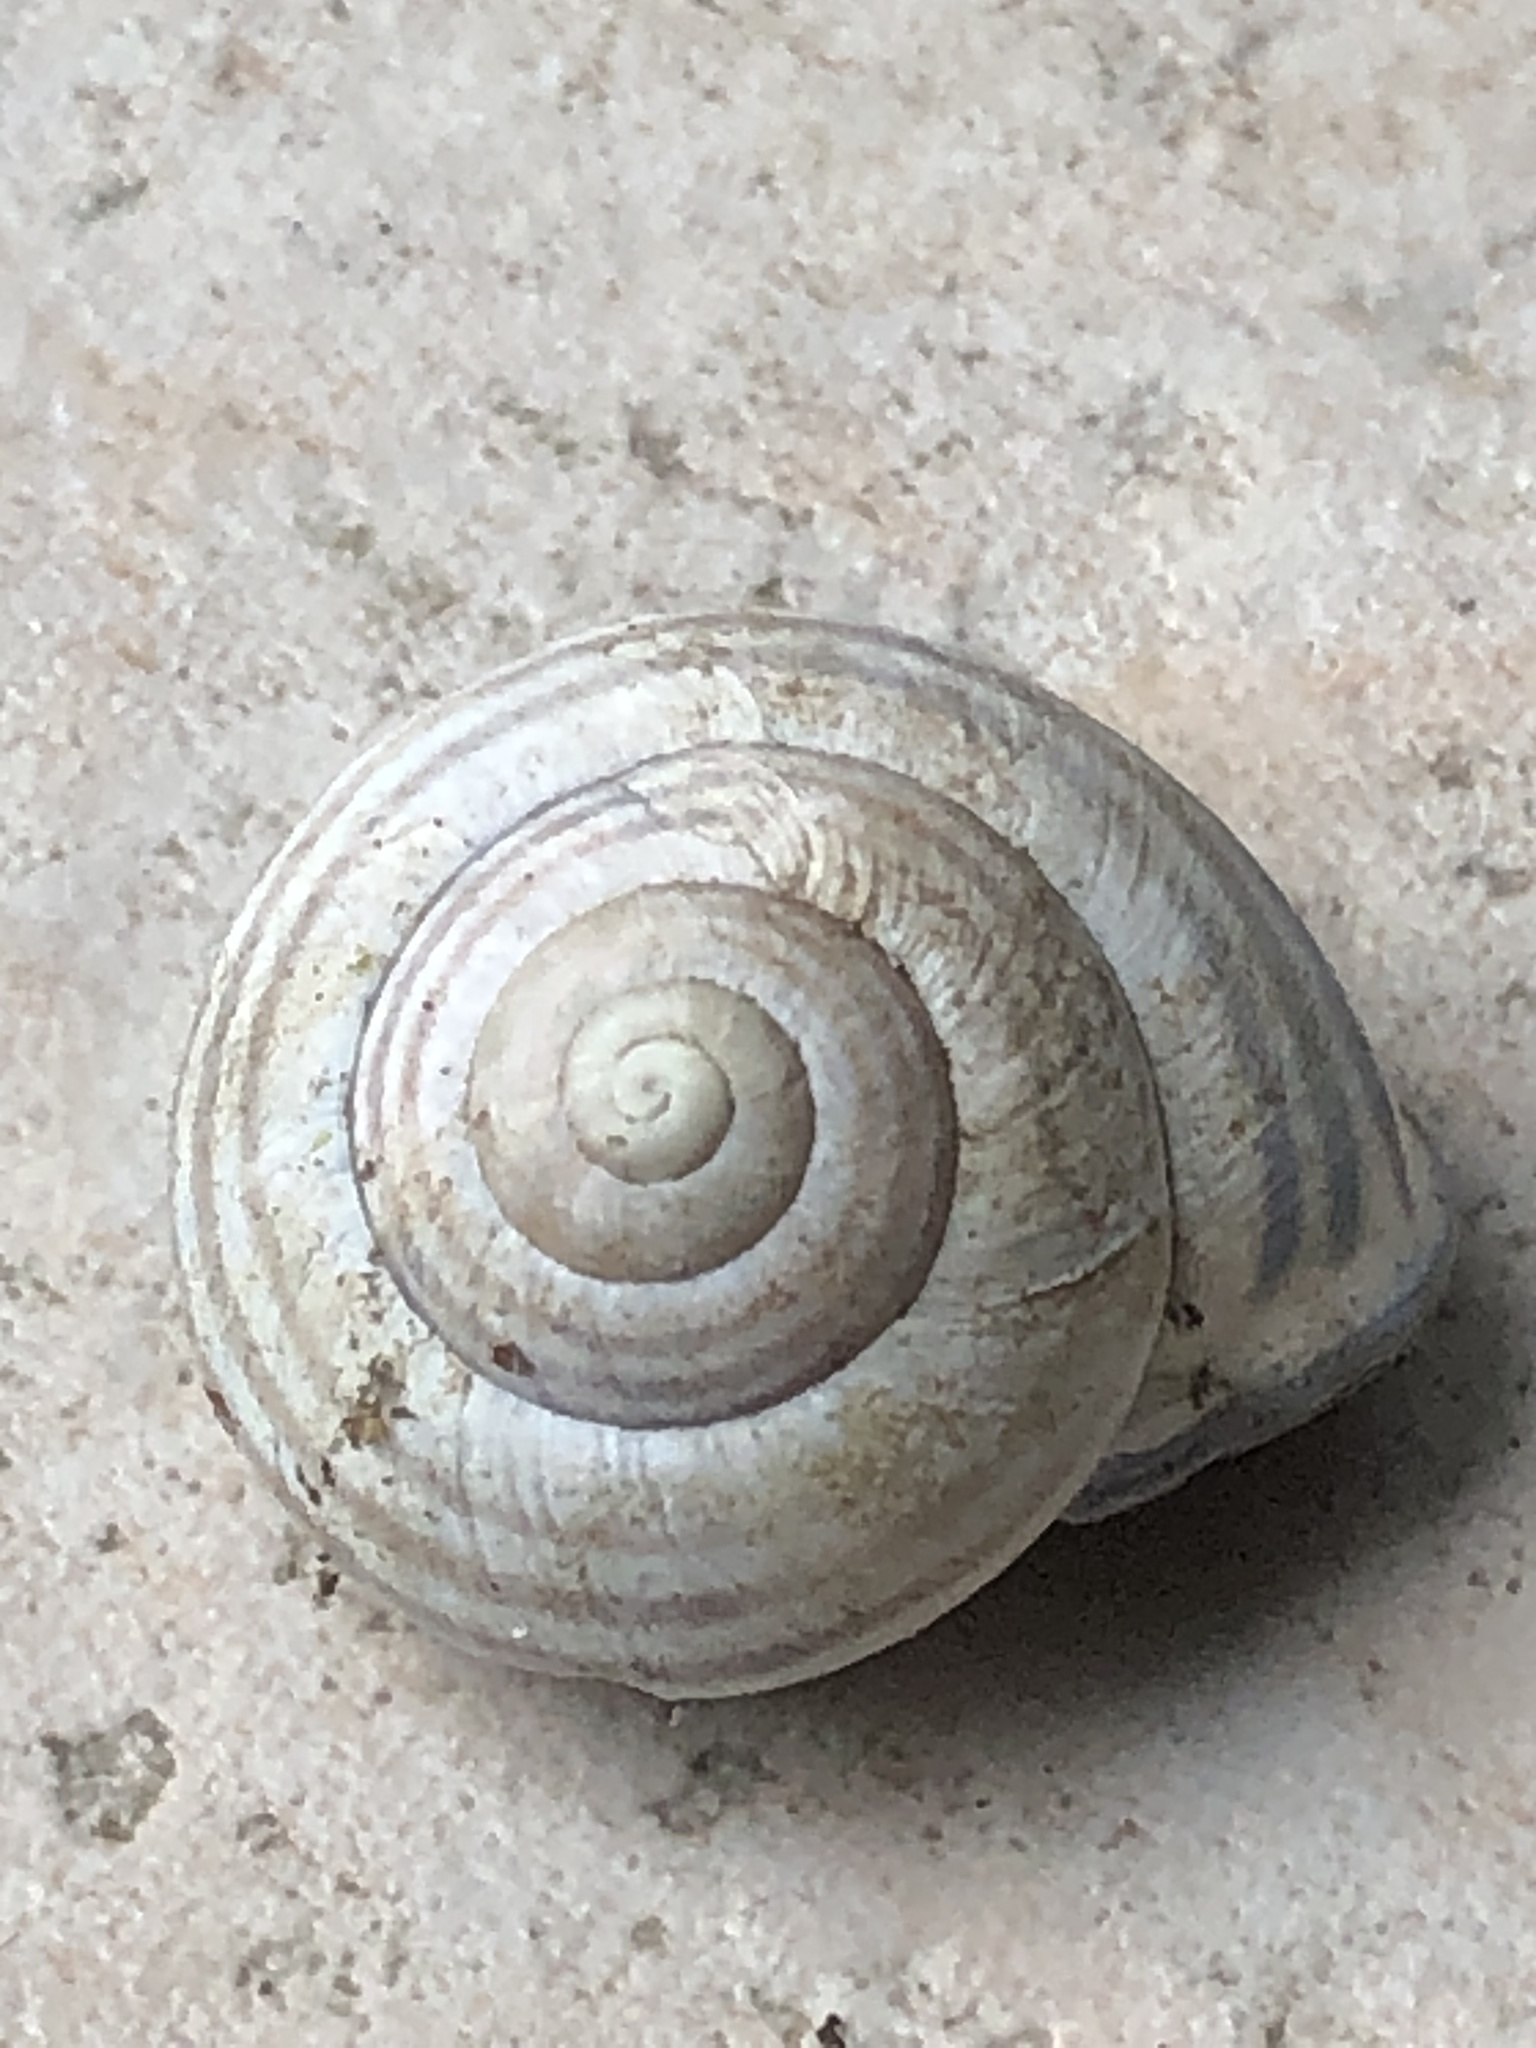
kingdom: Animalia
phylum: Mollusca
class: Gastropoda
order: Stylommatophora
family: Helicidae
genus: Cepaea
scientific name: Cepaea nemoralis
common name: Grovesnail
